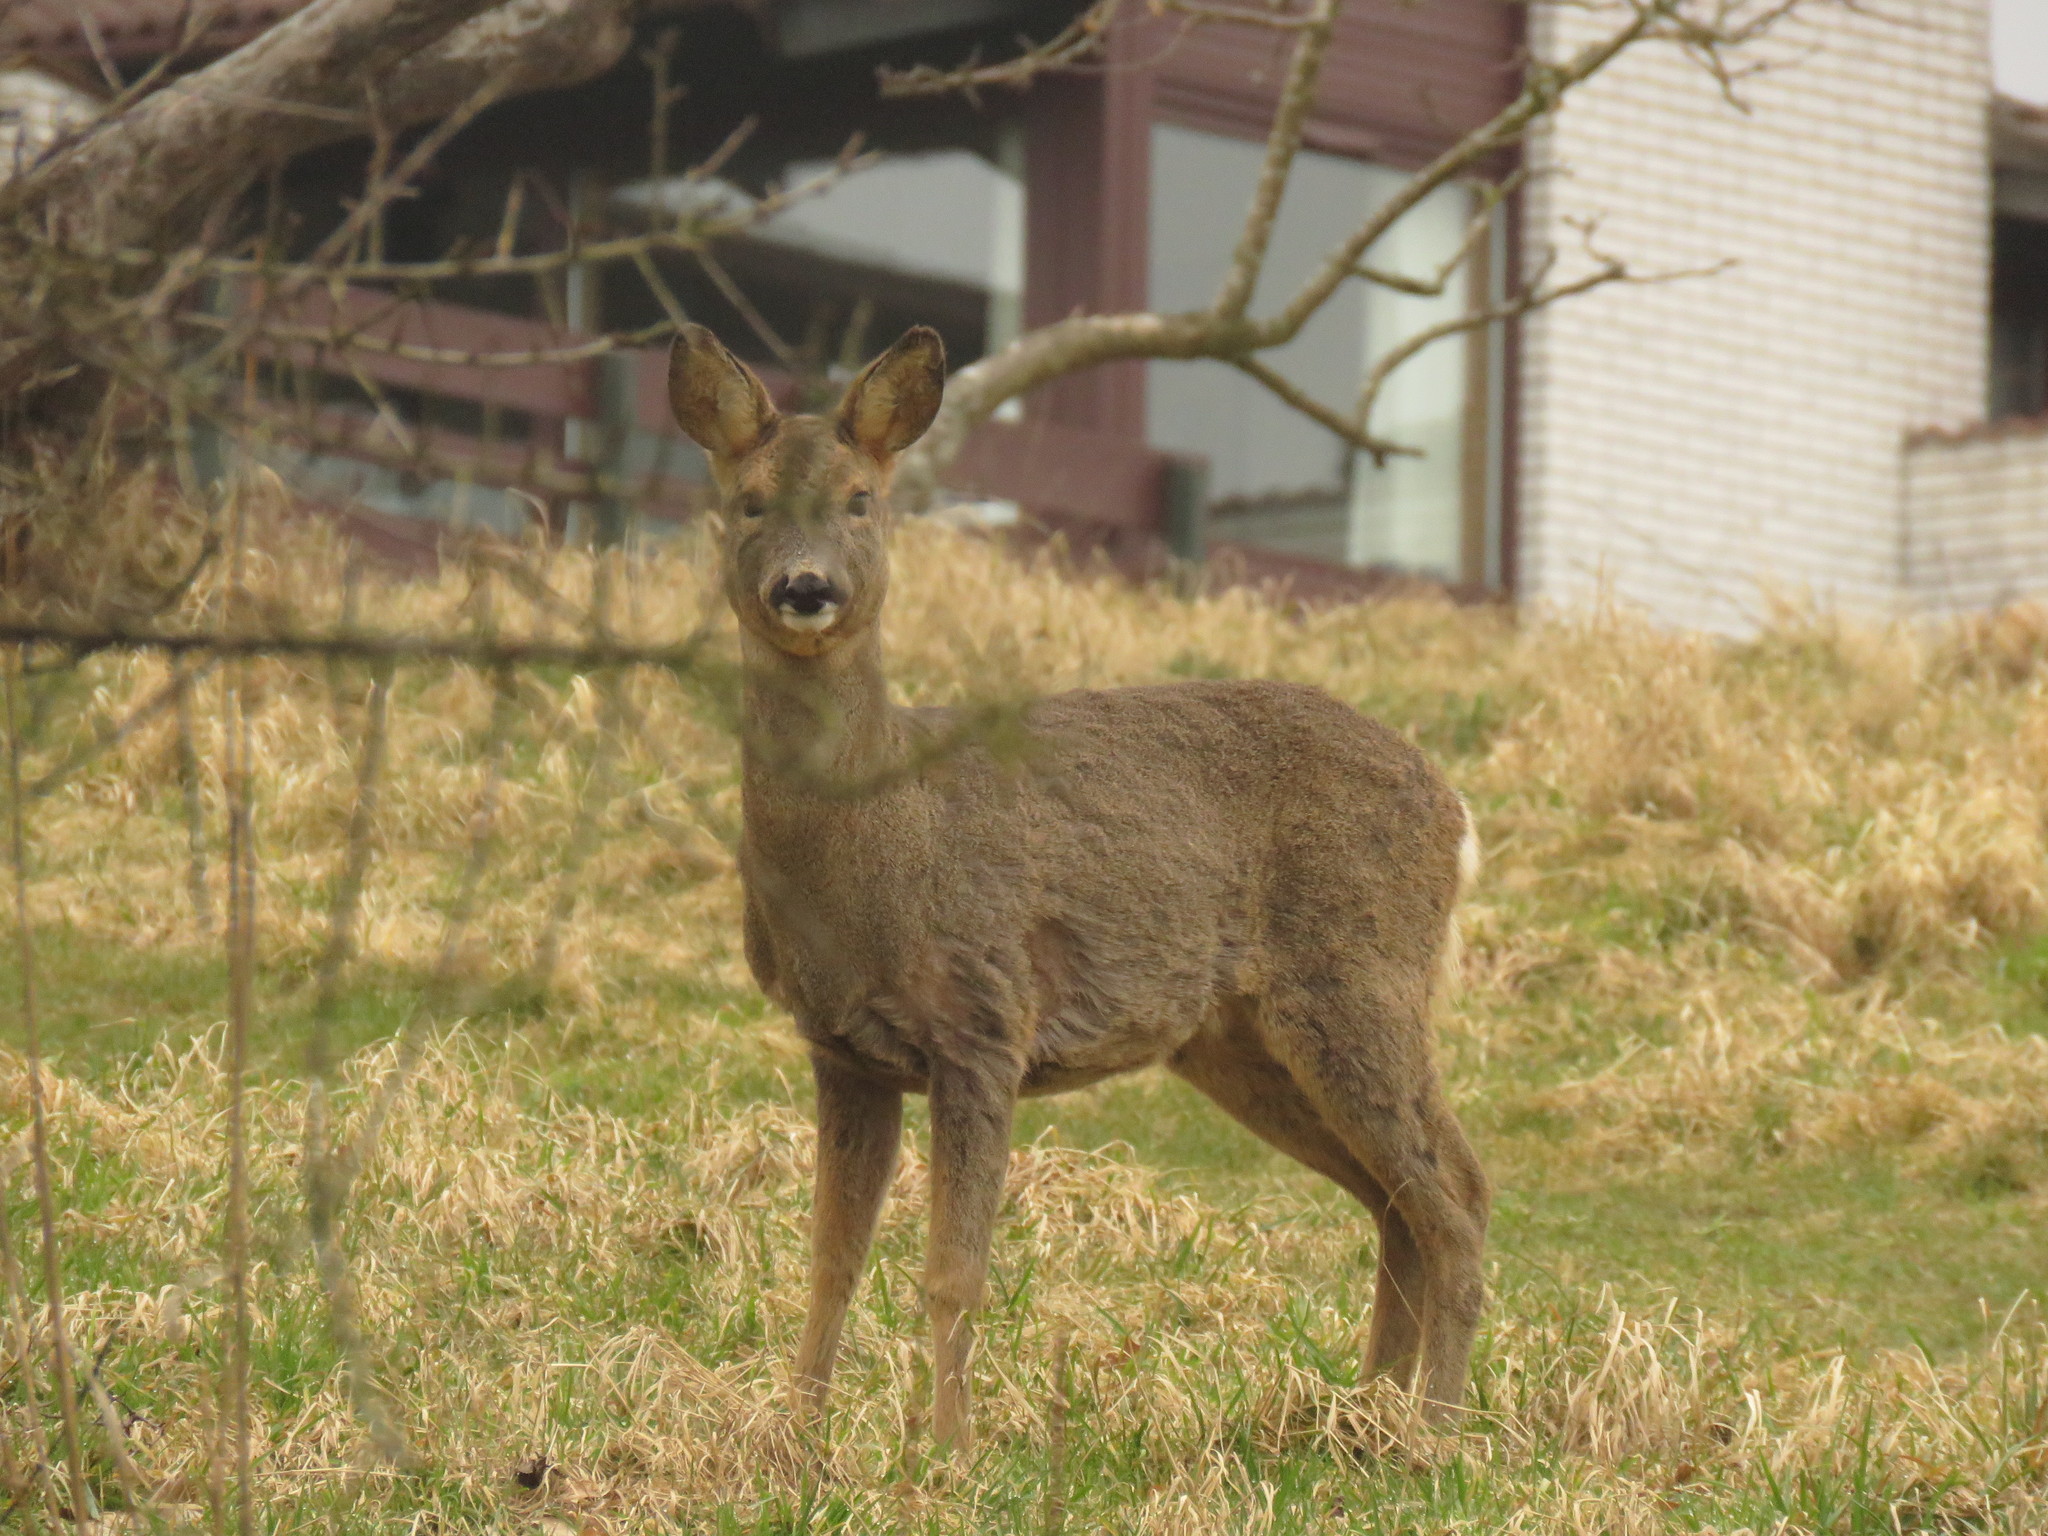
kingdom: Animalia
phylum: Chordata
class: Mammalia
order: Artiodactyla
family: Cervidae
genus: Capreolus
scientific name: Capreolus capreolus
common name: Western roe deer
